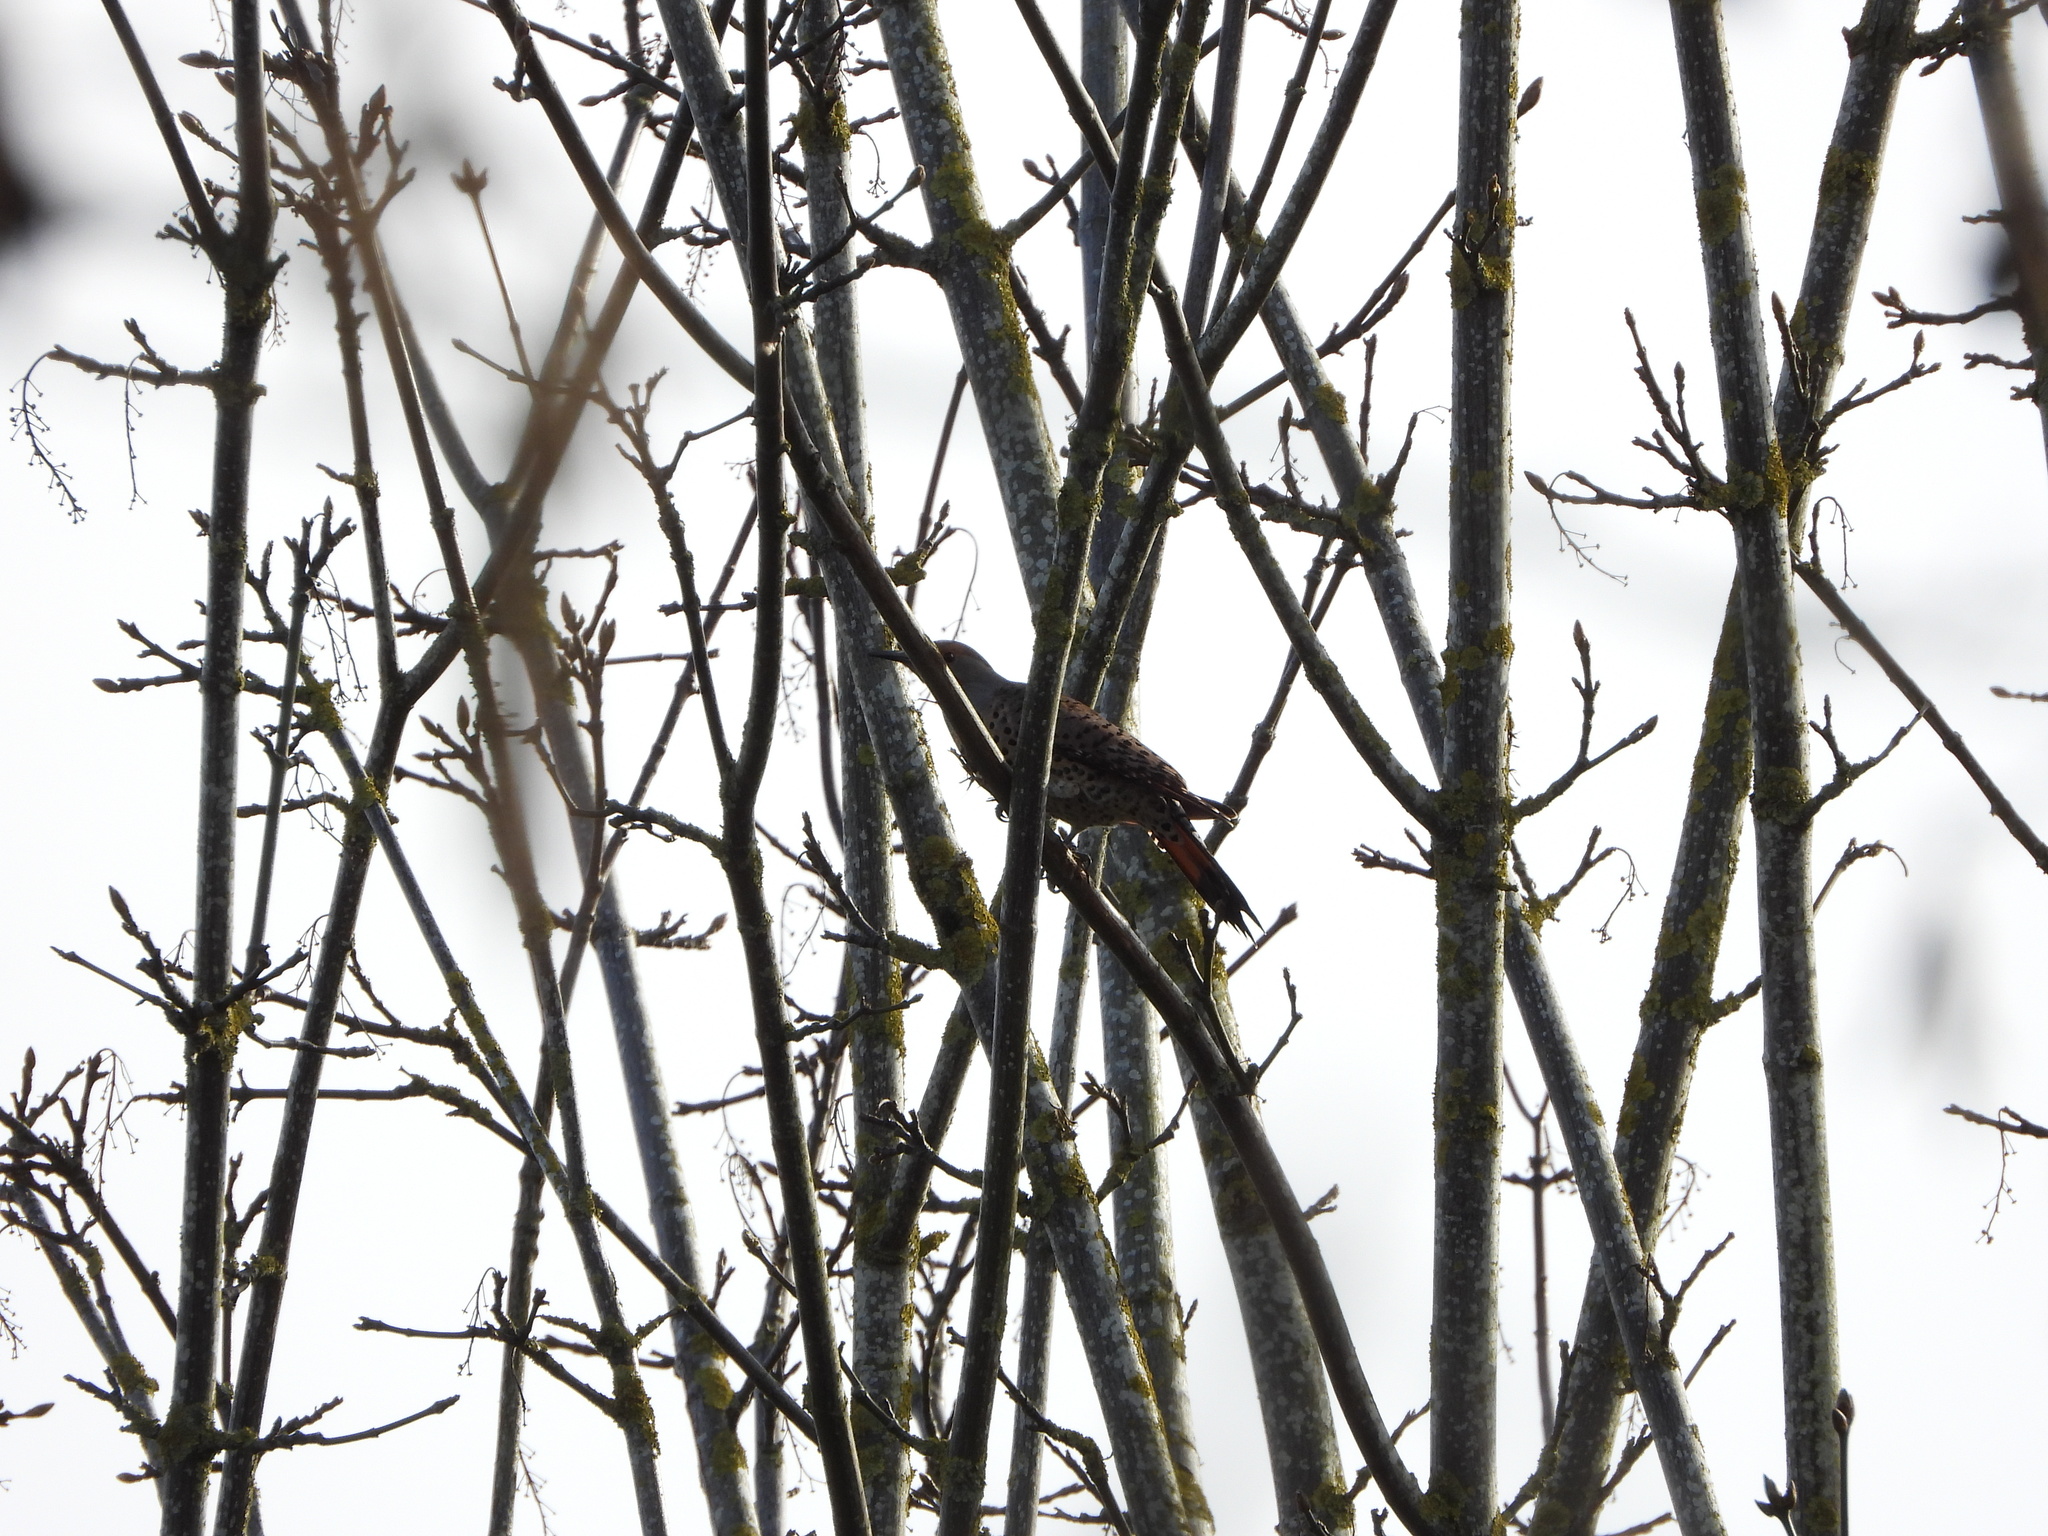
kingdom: Animalia
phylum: Chordata
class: Aves
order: Piciformes
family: Picidae
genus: Colaptes
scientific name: Colaptes auratus
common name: Northern flicker
